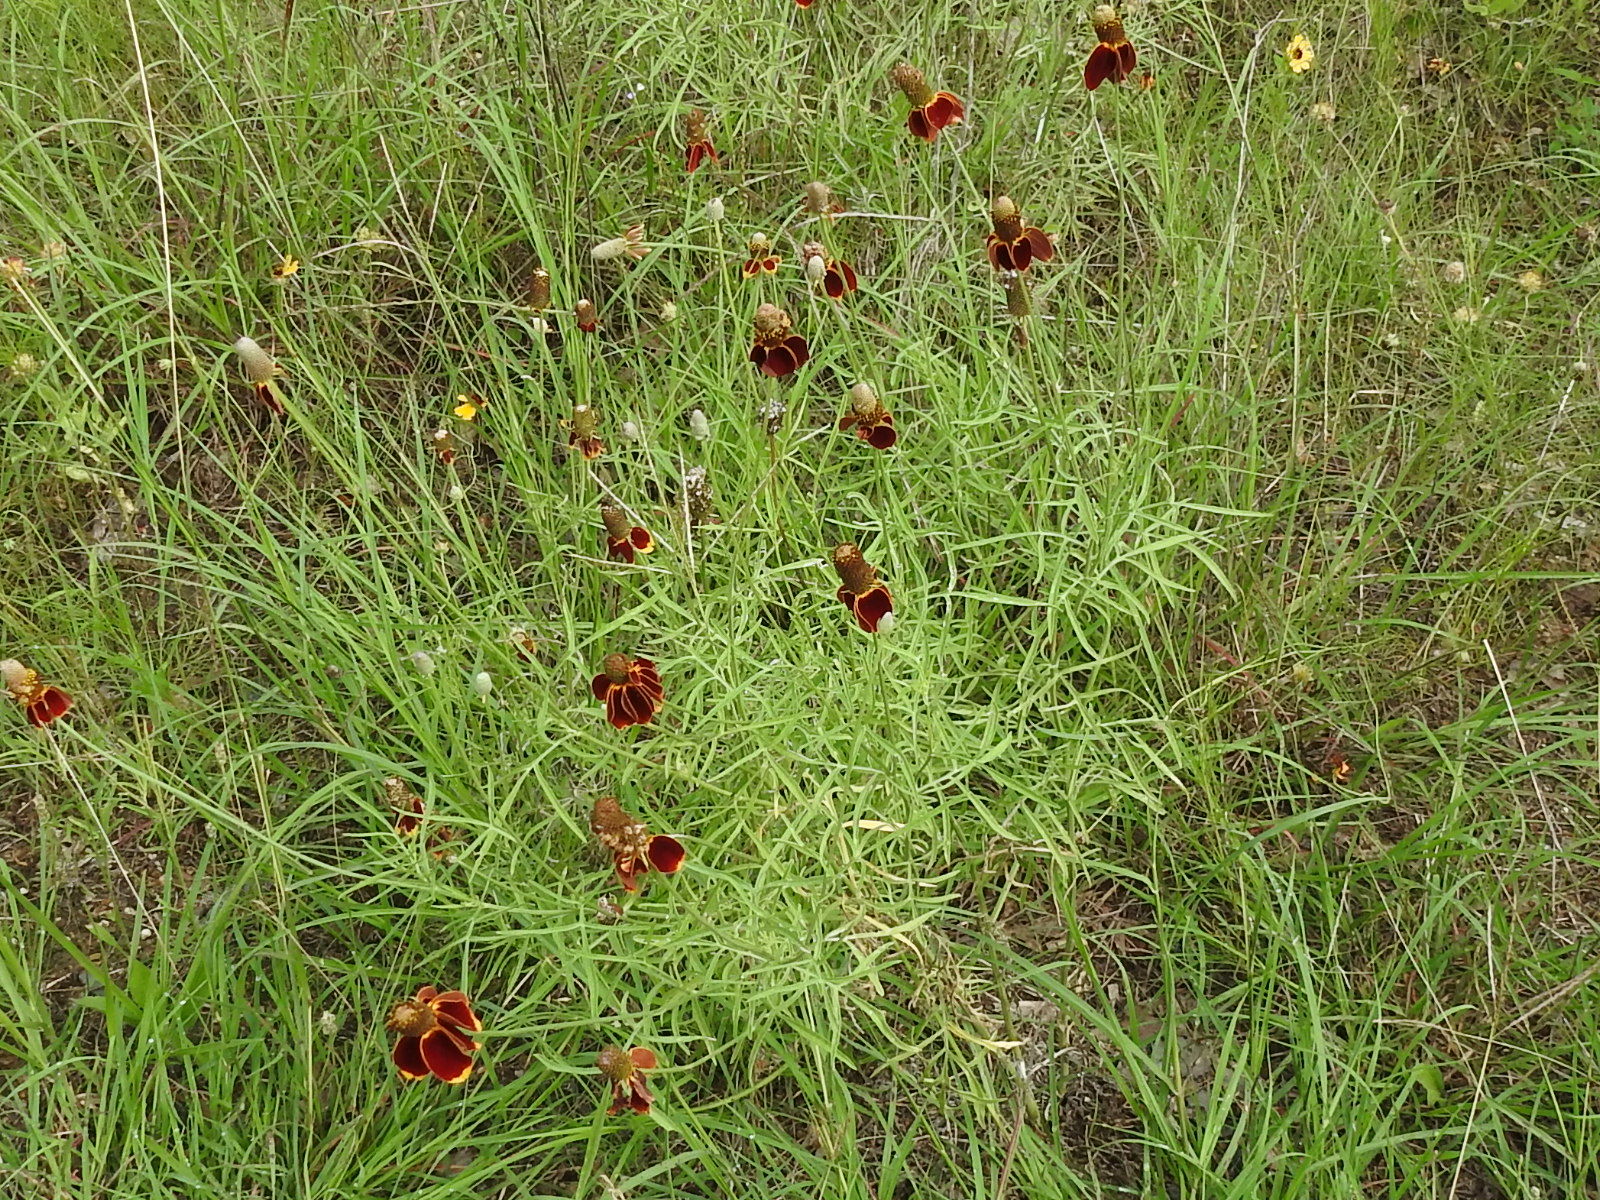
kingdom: Plantae
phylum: Tracheophyta
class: Magnoliopsida
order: Asterales
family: Asteraceae
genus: Ratibida
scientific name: Ratibida columnifera
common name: Prairie coneflower
